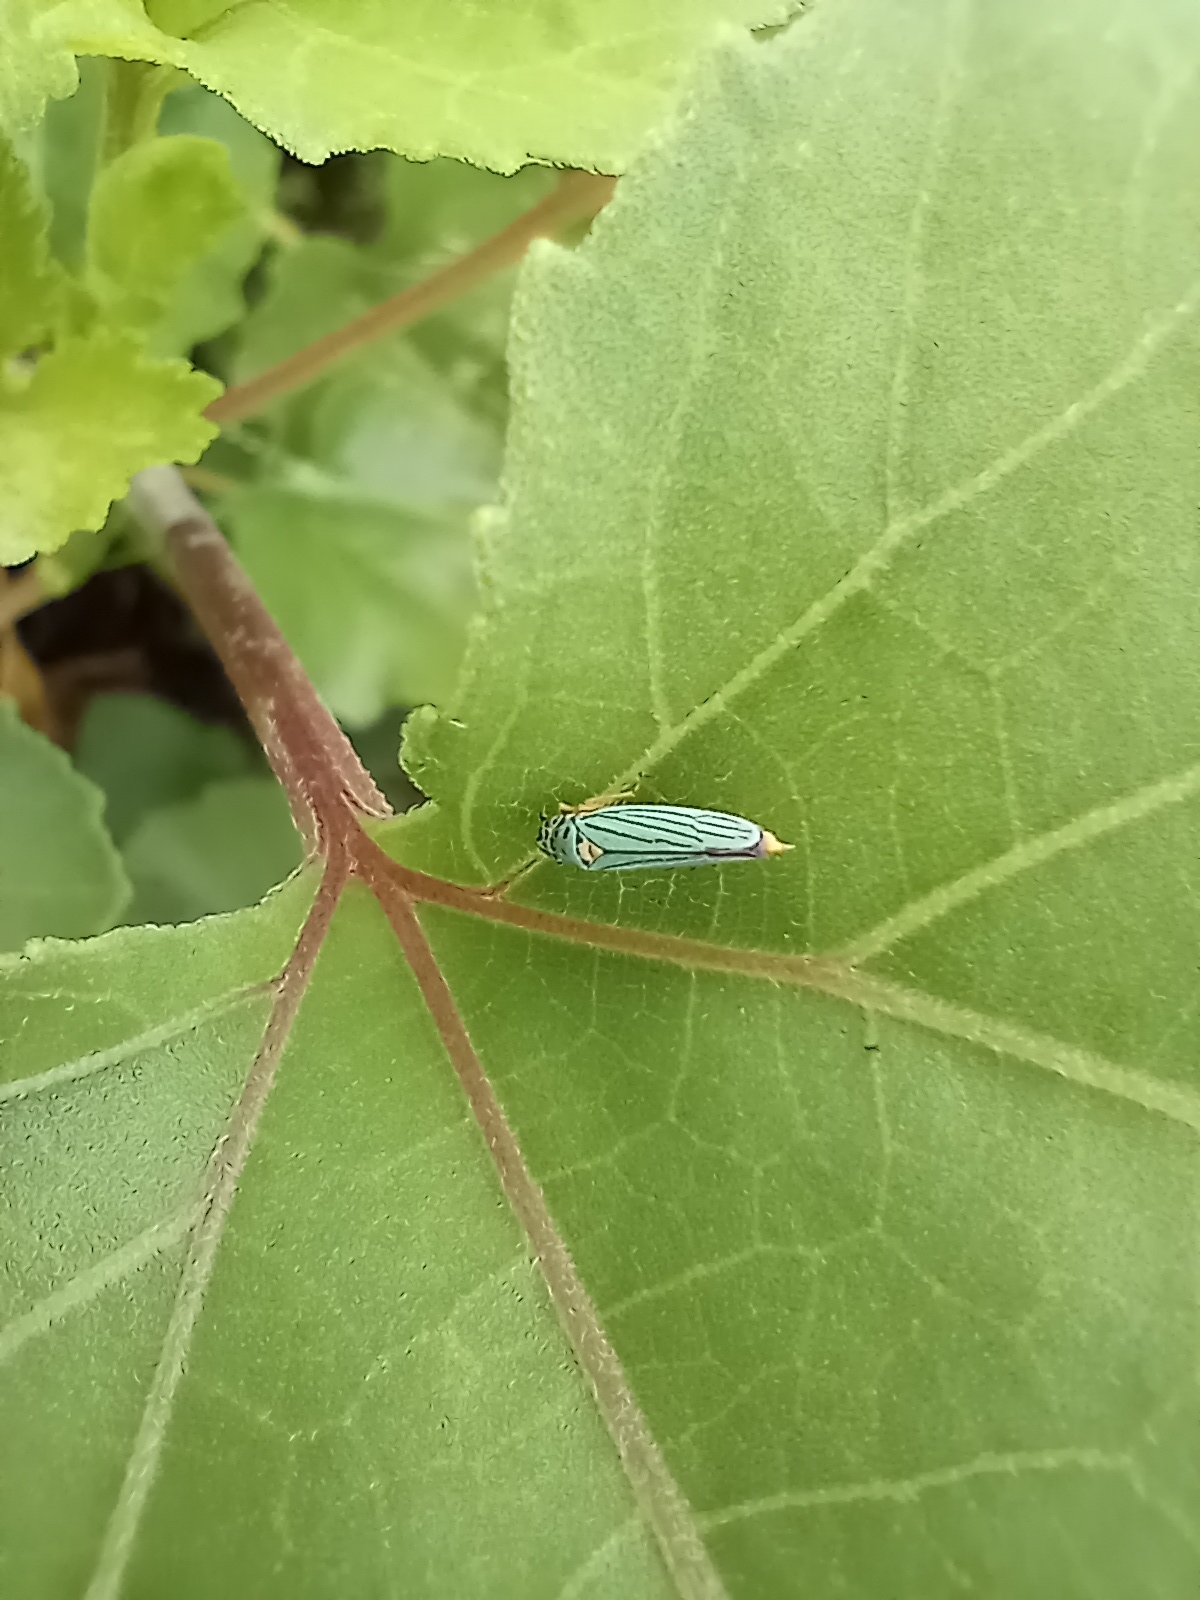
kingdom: Animalia
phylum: Arthropoda
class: Insecta
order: Hemiptera
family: Cicadellidae
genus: Graphocephala
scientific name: Graphocephala atropunctata
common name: Blue-green sharpshooter
